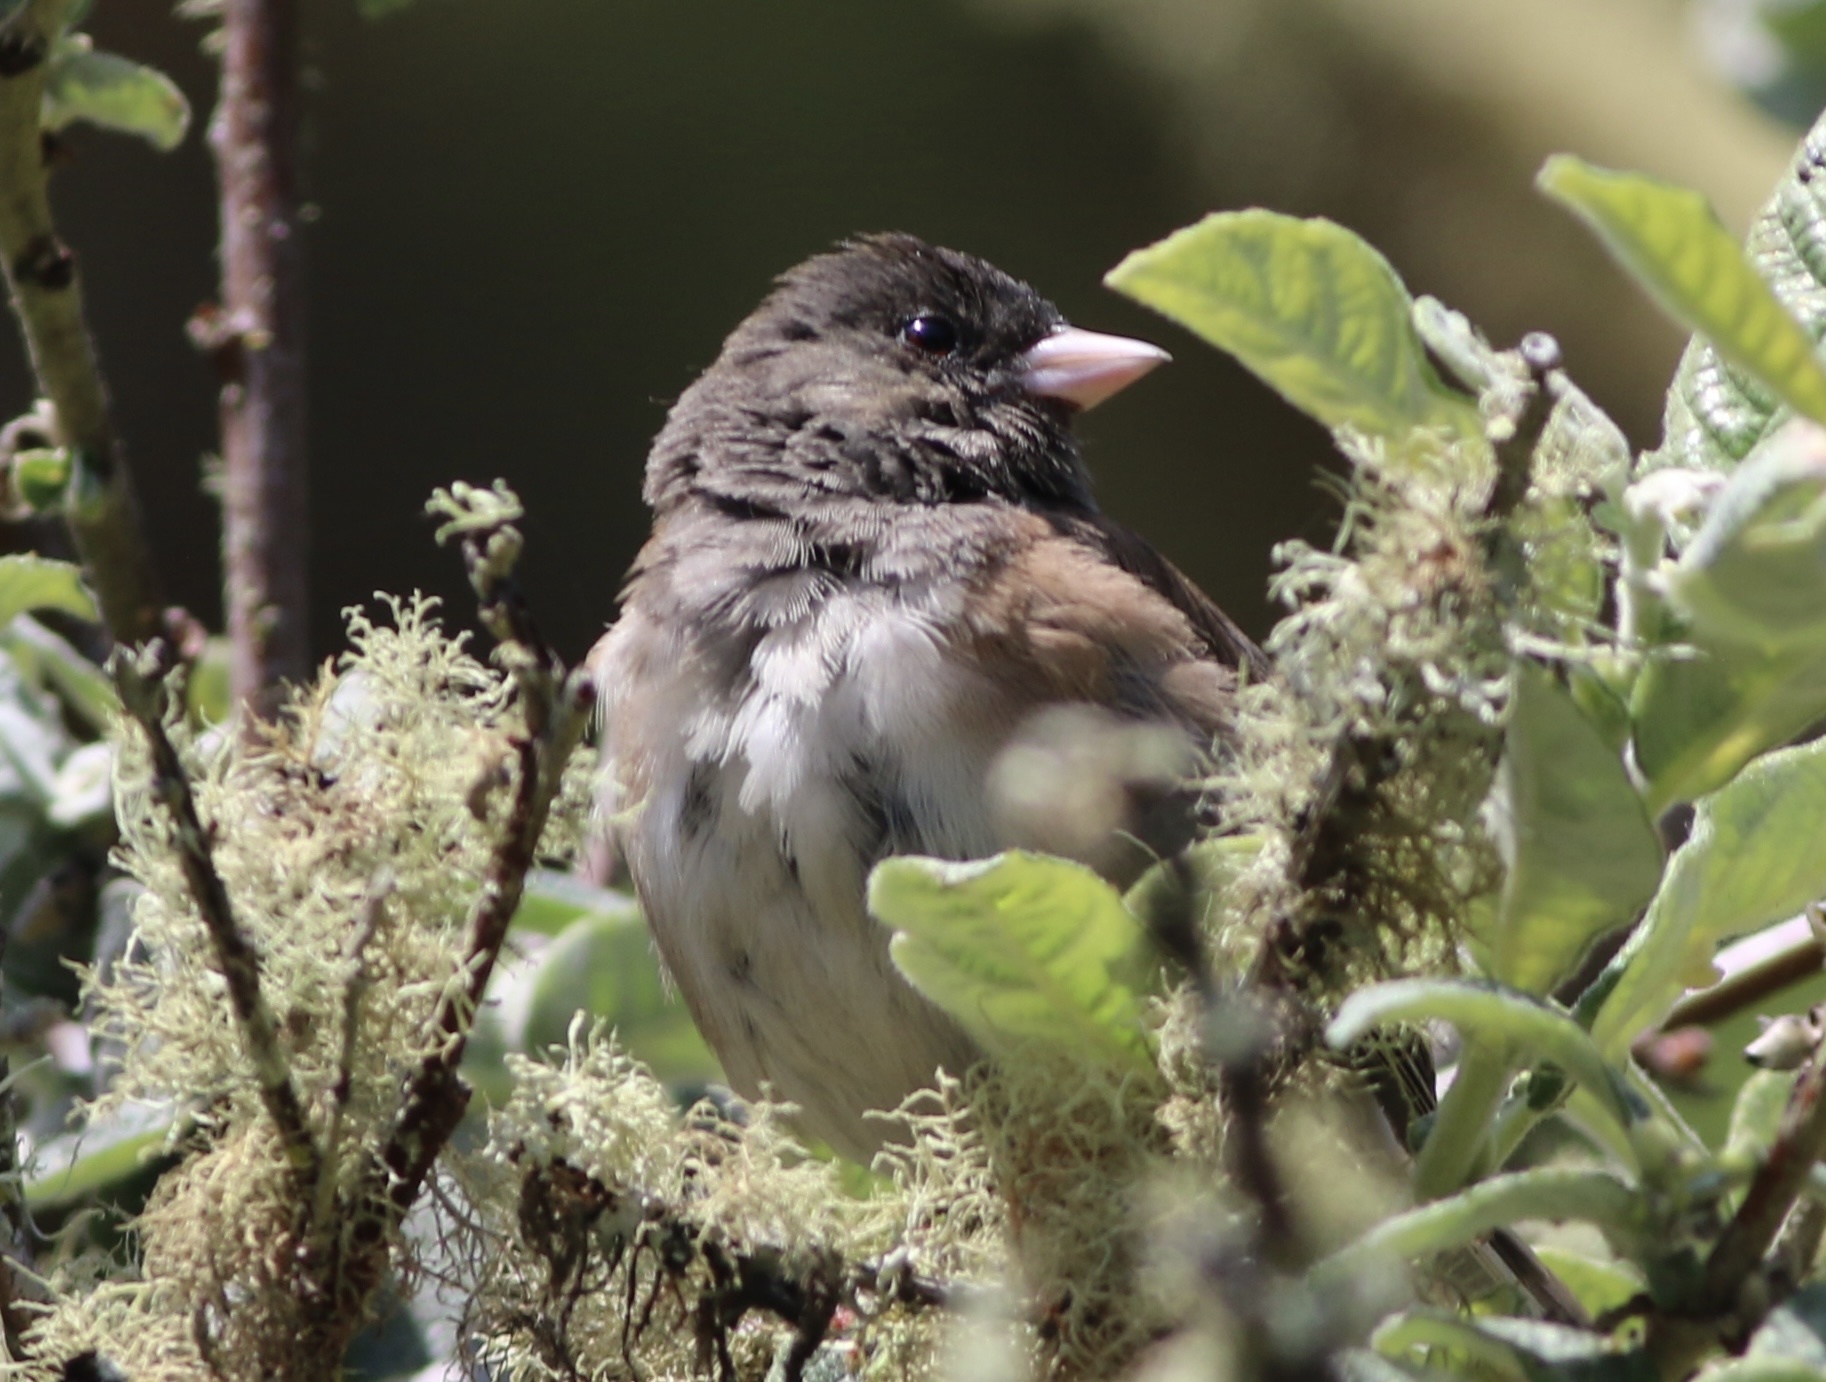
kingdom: Animalia
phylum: Chordata
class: Aves
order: Passeriformes
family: Passerellidae
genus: Junco
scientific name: Junco hyemalis
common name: Dark-eyed junco
